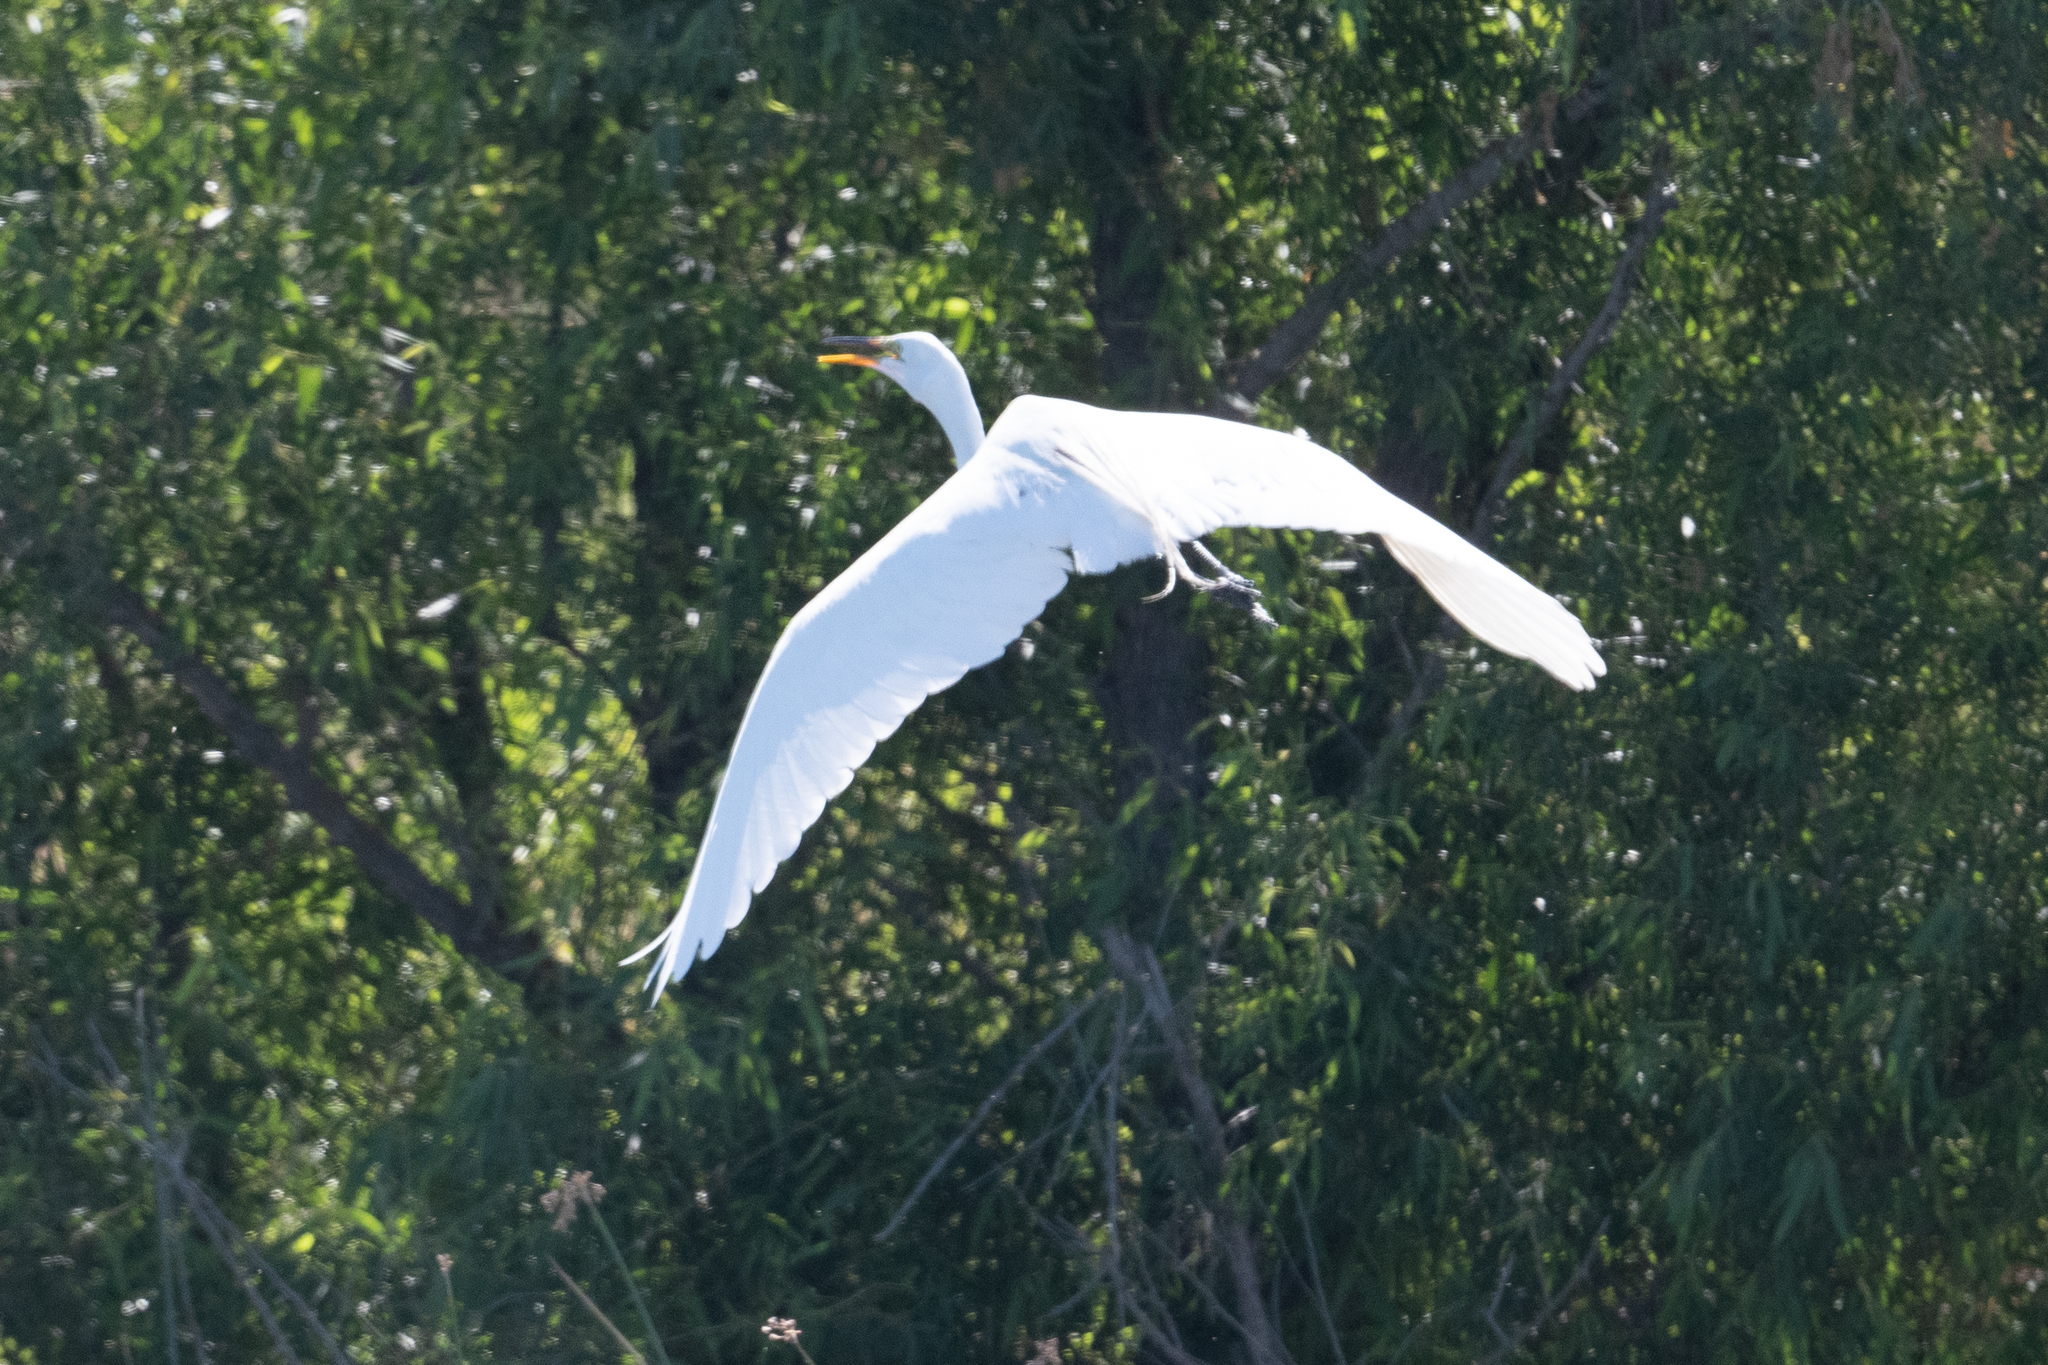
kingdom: Animalia
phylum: Chordata
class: Aves
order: Pelecaniformes
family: Ardeidae
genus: Ardea
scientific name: Ardea alba
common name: Great egret
